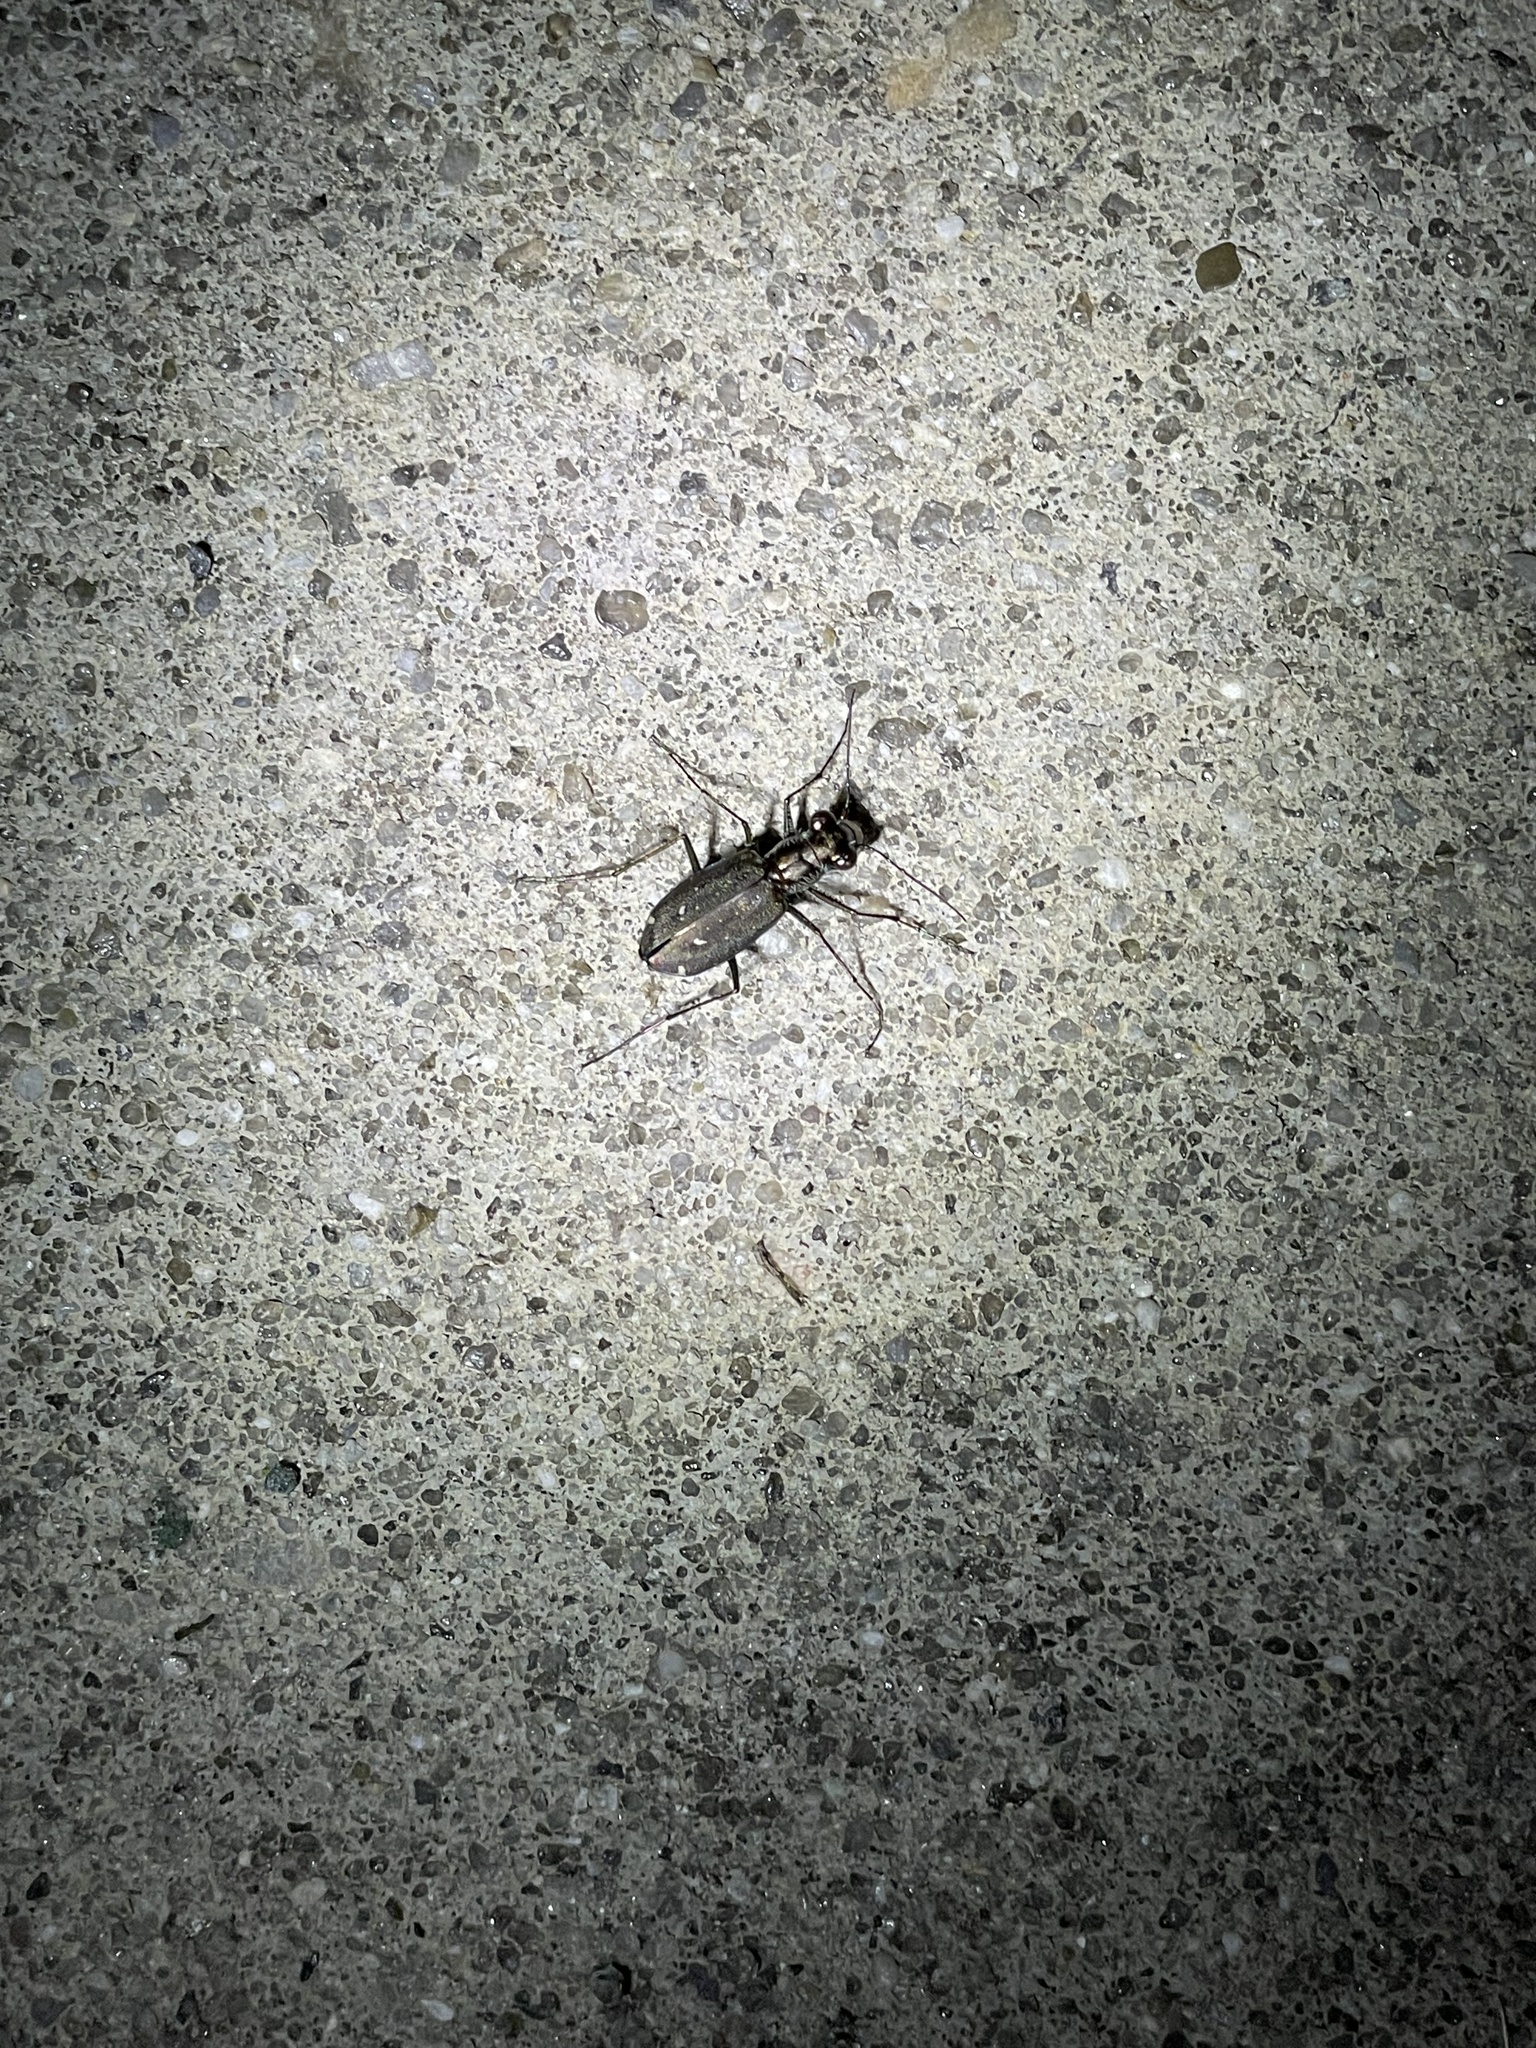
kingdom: Animalia
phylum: Arthropoda
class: Insecta
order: Coleoptera
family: Carabidae
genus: Cicindela
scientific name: Cicindela punctulata
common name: Punctured tiger beetle
